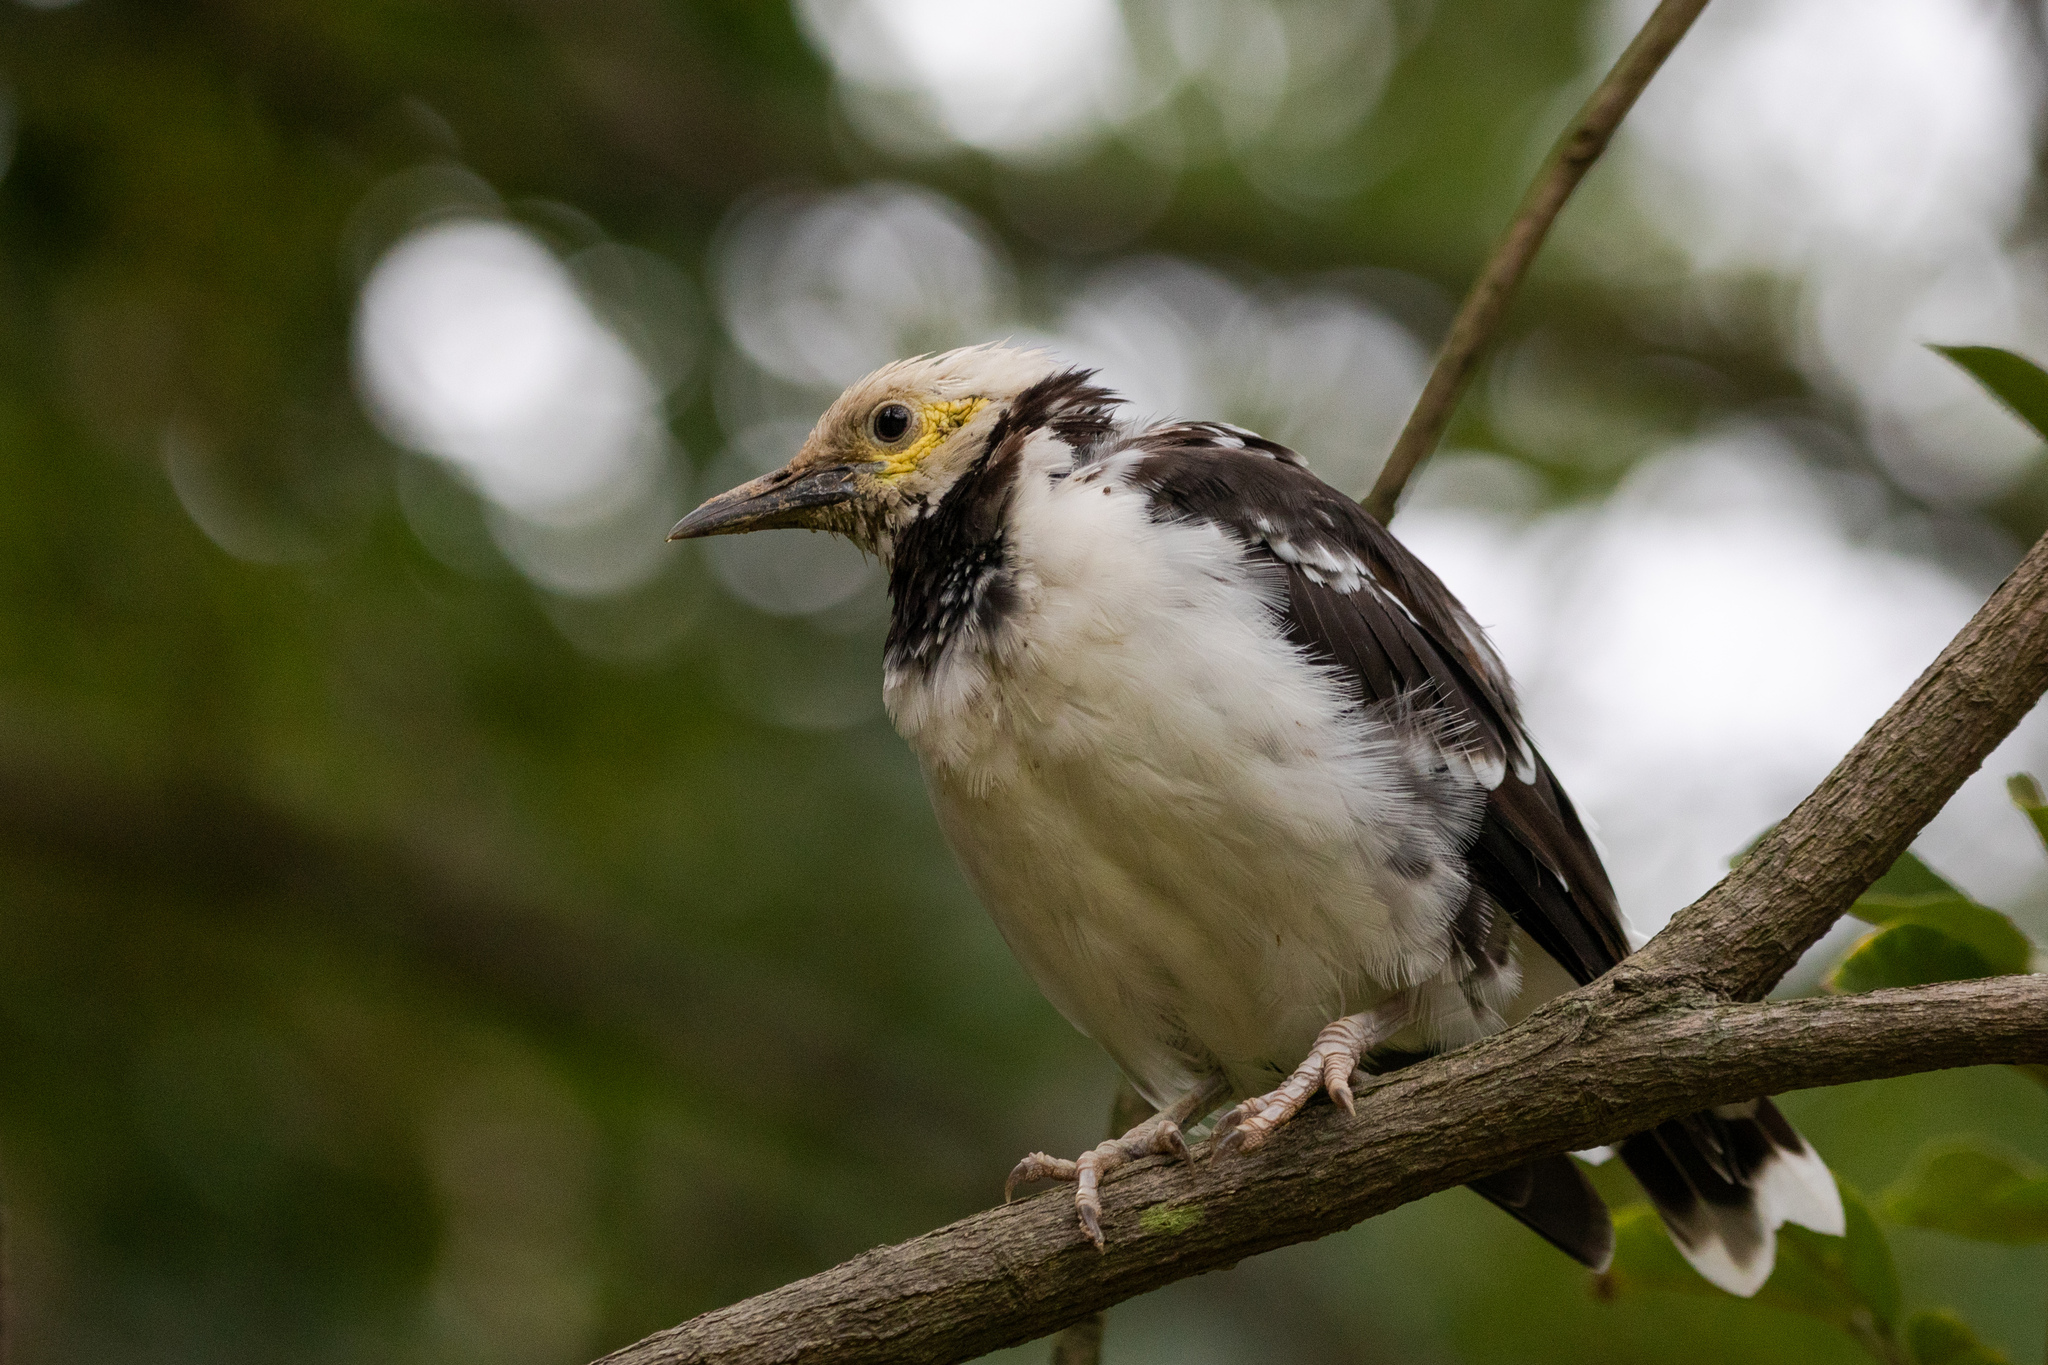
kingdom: Animalia
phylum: Chordata
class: Aves
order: Passeriformes
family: Sturnidae
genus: Gracupica
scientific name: Gracupica nigricollis
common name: Black-collared starling
